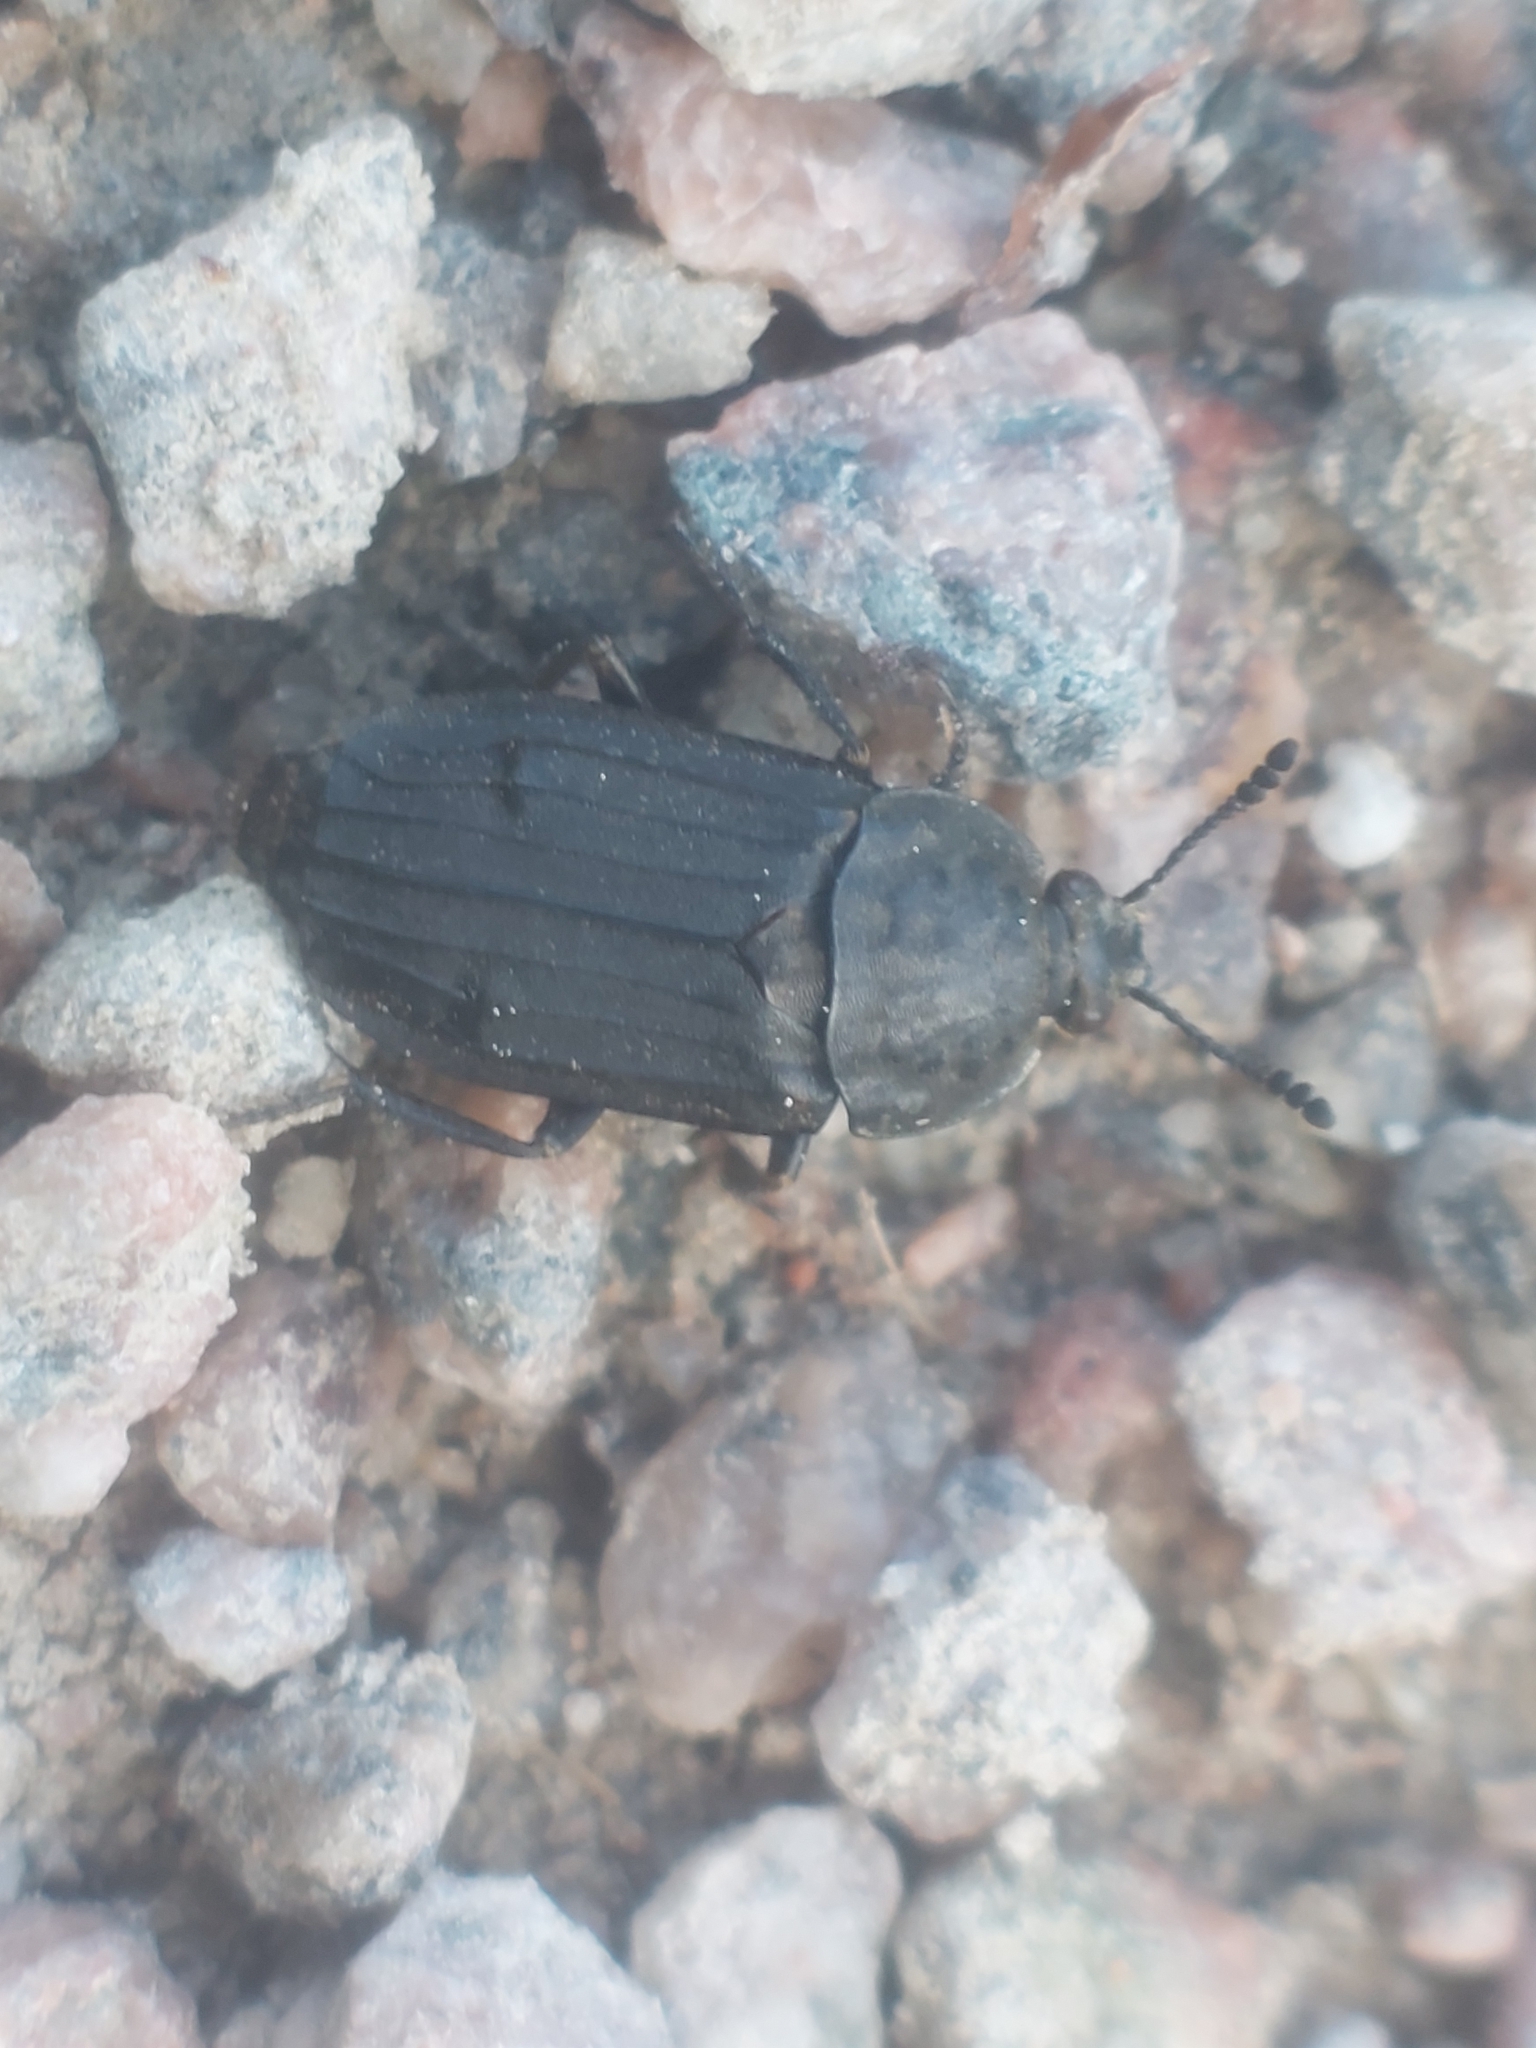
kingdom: Animalia
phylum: Arthropoda
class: Insecta
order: Coleoptera
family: Staphylinidae
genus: Thanatophilus
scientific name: Thanatophilus sinuatus
